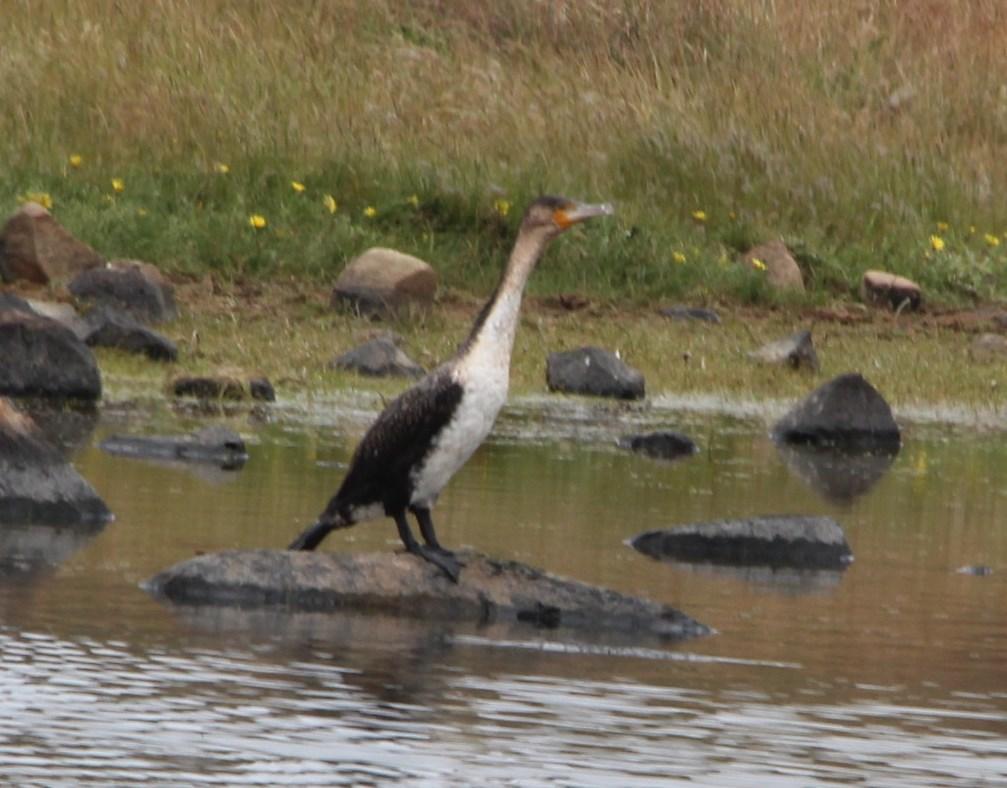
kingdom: Animalia
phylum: Chordata
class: Aves
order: Suliformes
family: Phalacrocoracidae
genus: Phalacrocorax
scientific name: Phalacrocorax carbo
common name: Great cormorant
